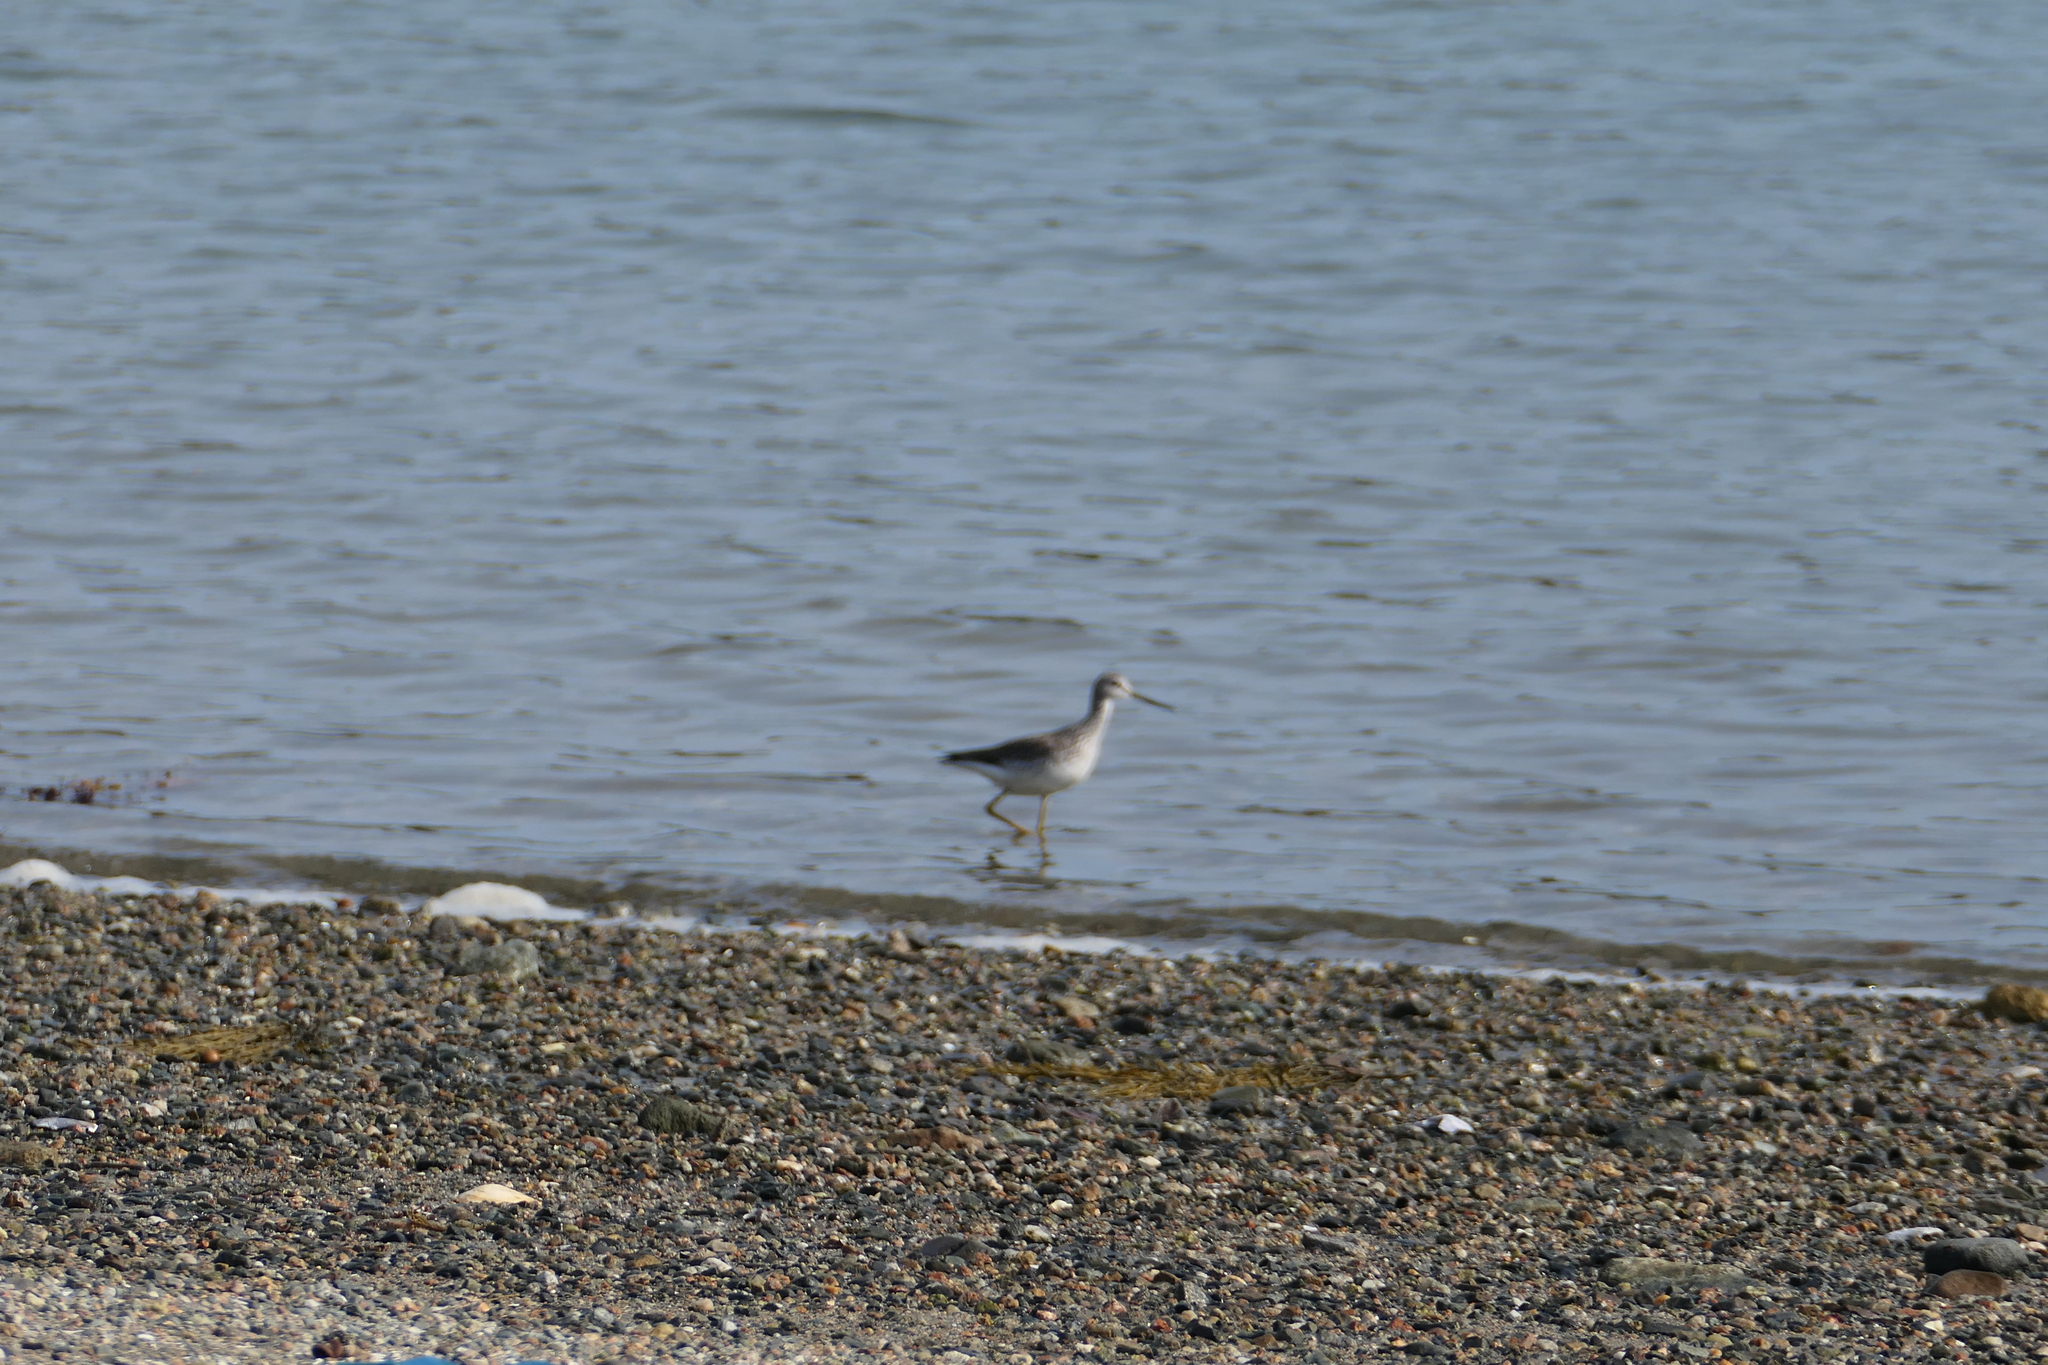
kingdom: Animalia
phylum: Chordata
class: Aves
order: Charadriiformes
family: Scolopacidae
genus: Tringa
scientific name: Tringa melanoleuca
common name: Greater yellowlegs
